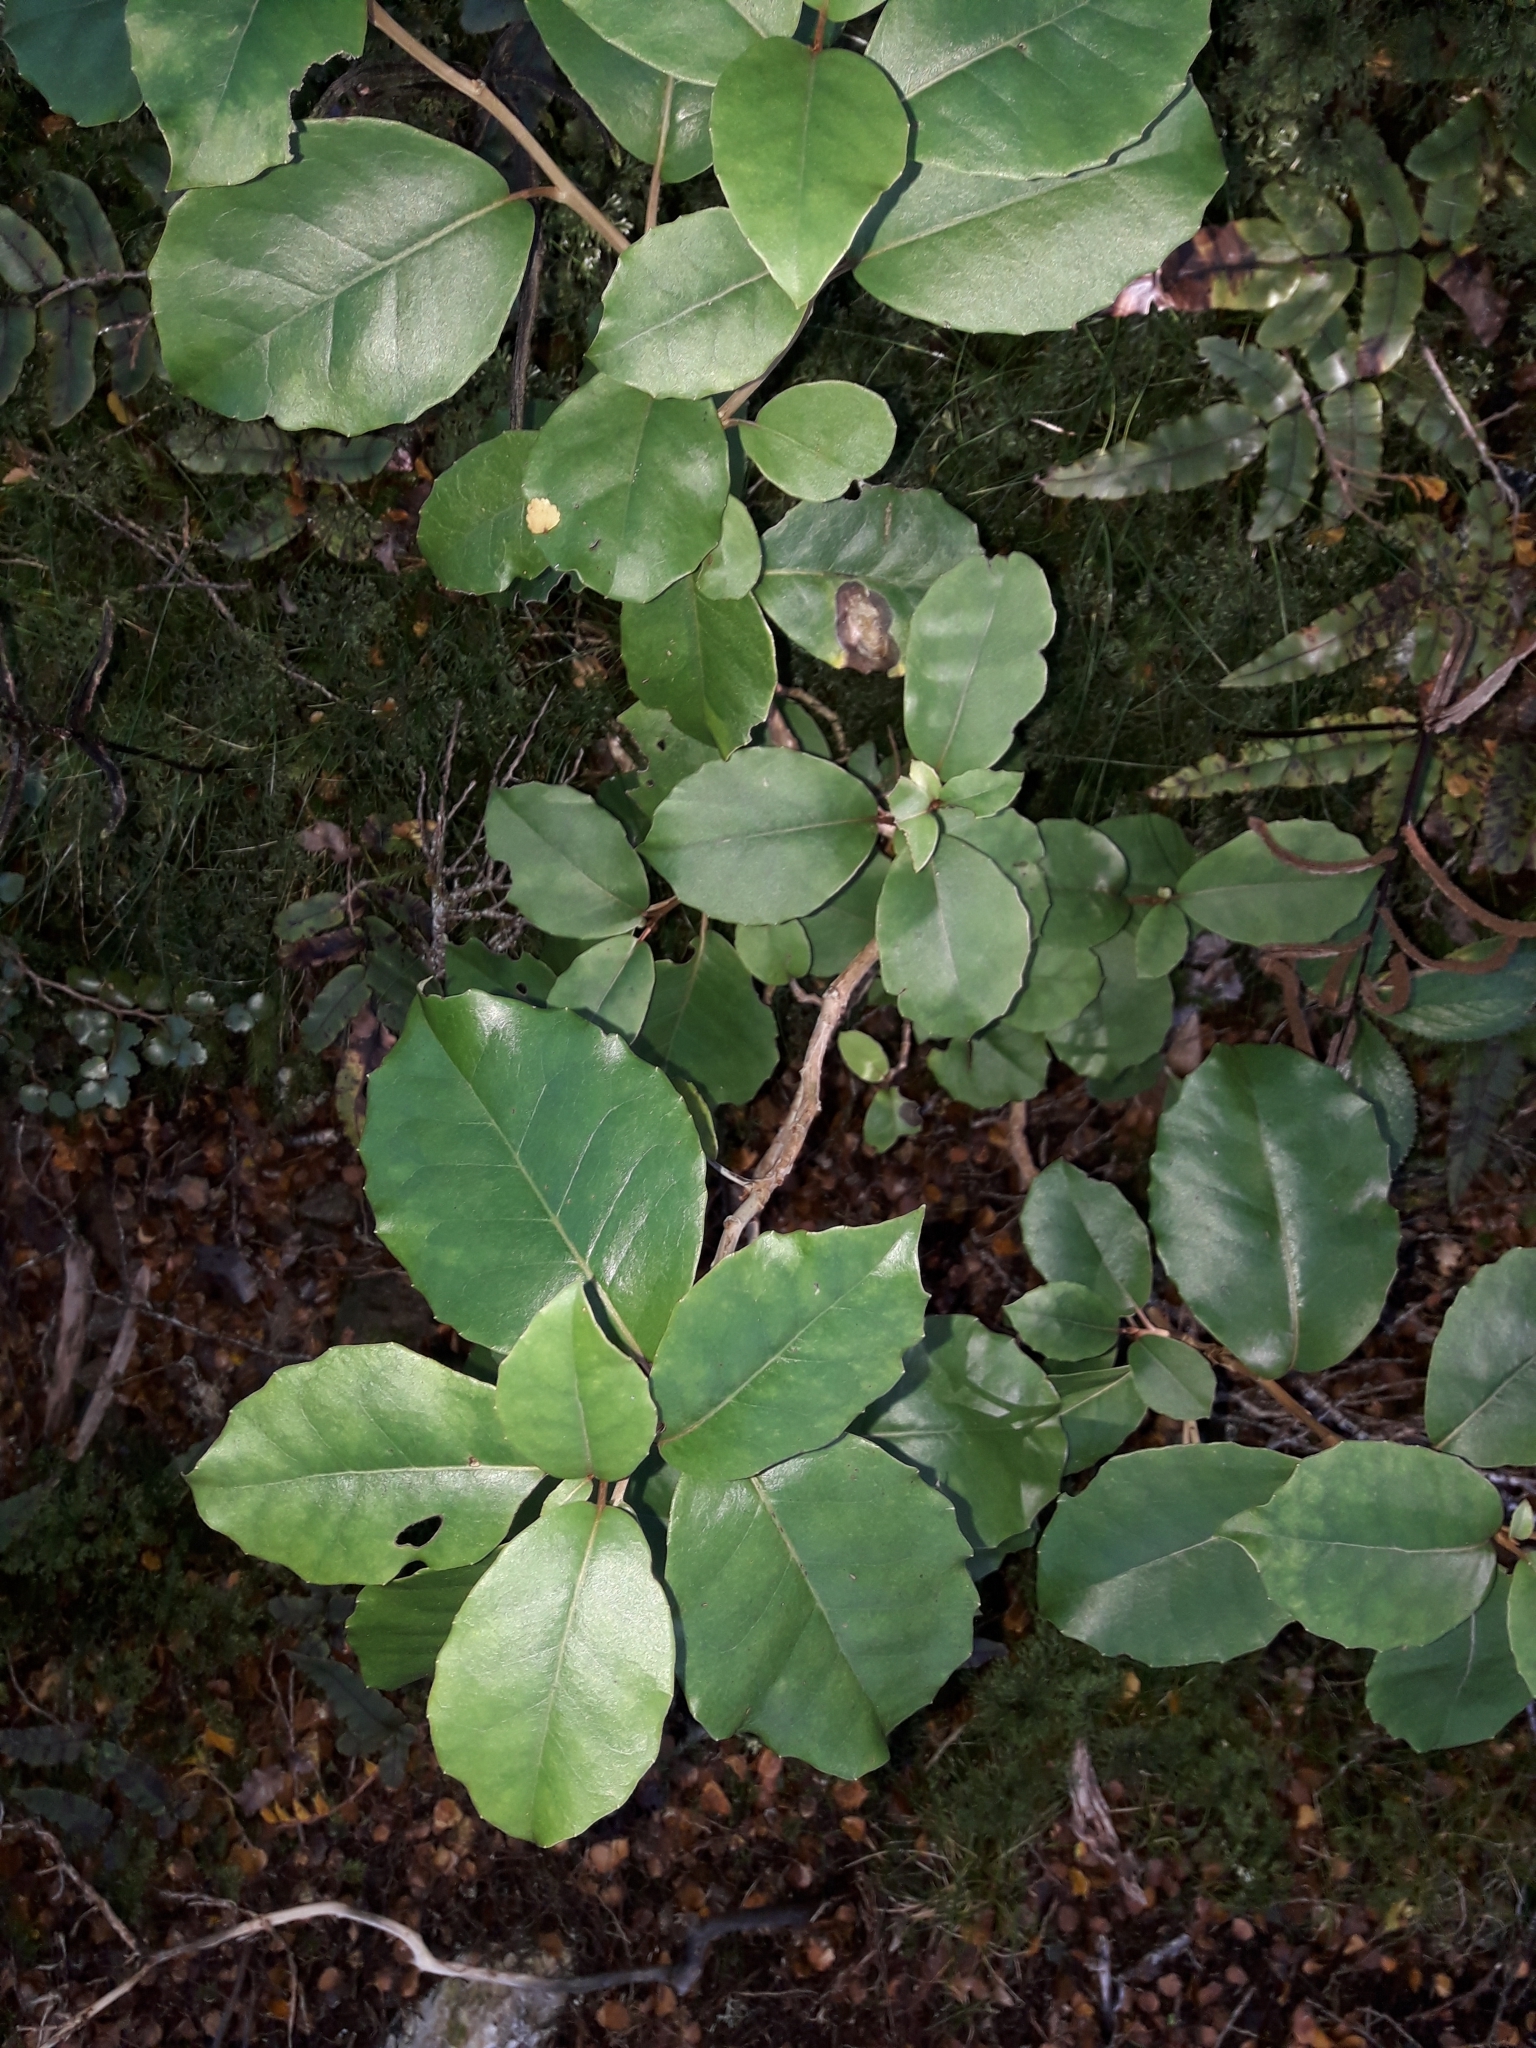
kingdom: Plantae
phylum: Tracheophyta
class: Magnoliopsida
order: Asterales
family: Asteraceae
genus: Olearia
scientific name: Olearia arborescens
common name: Glossy tree daisy
